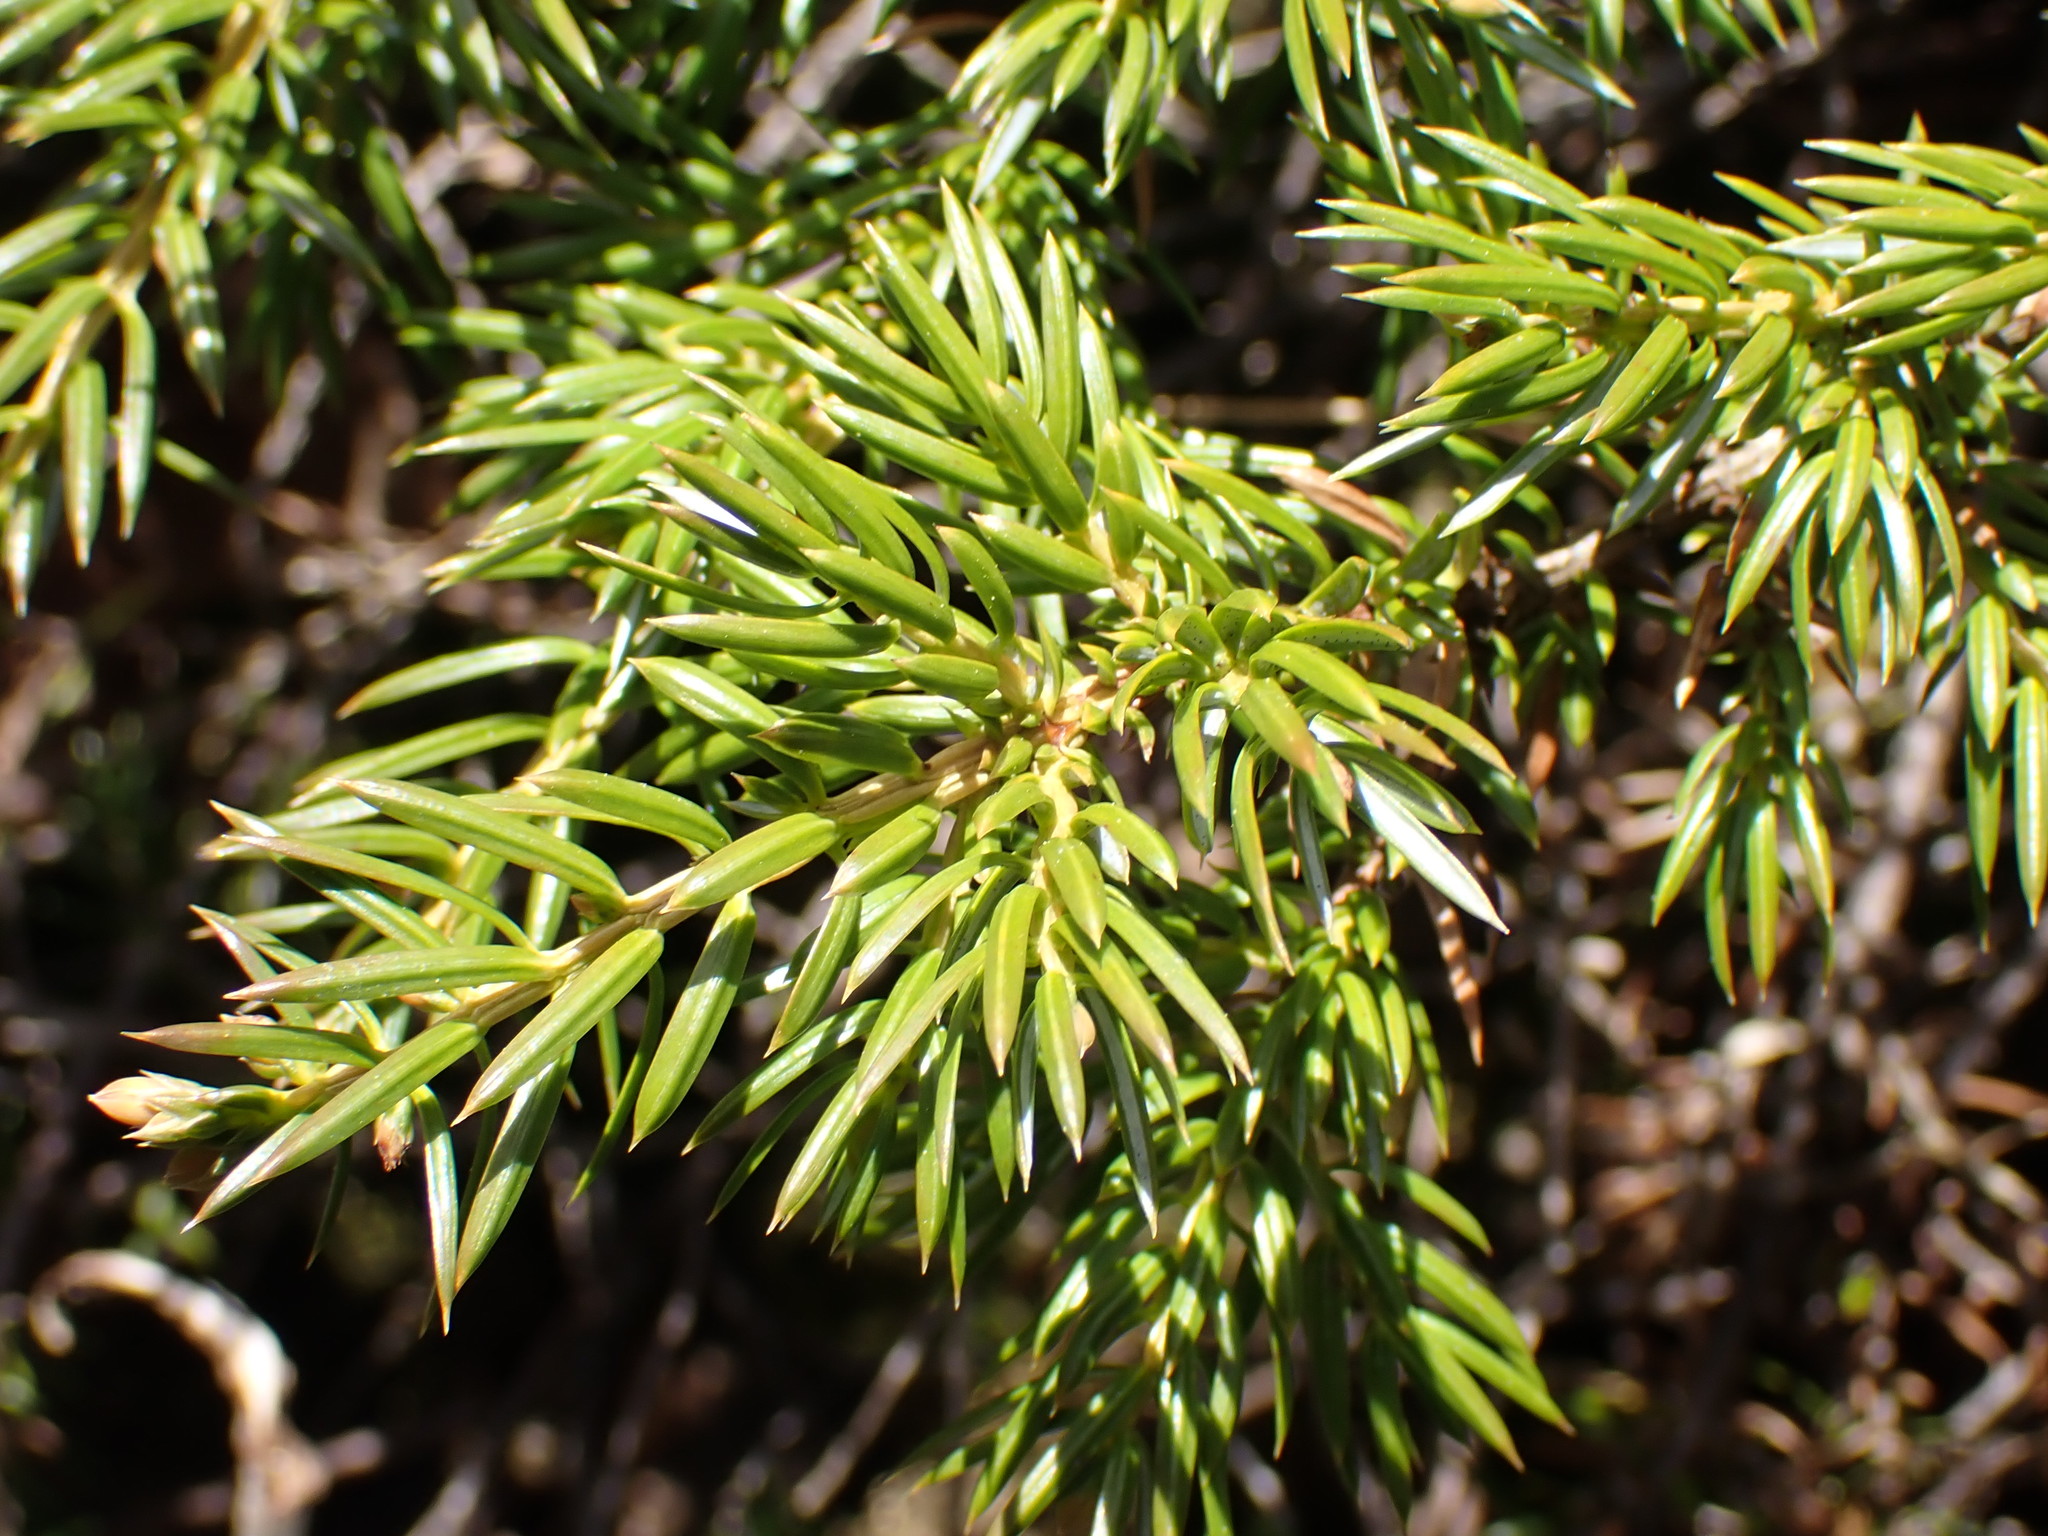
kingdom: Plantae
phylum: Tracheophyta
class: Pinopsida
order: Pinales
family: Cupressaceae
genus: Juniperus
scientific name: Juniperus communis
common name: Common juniper
